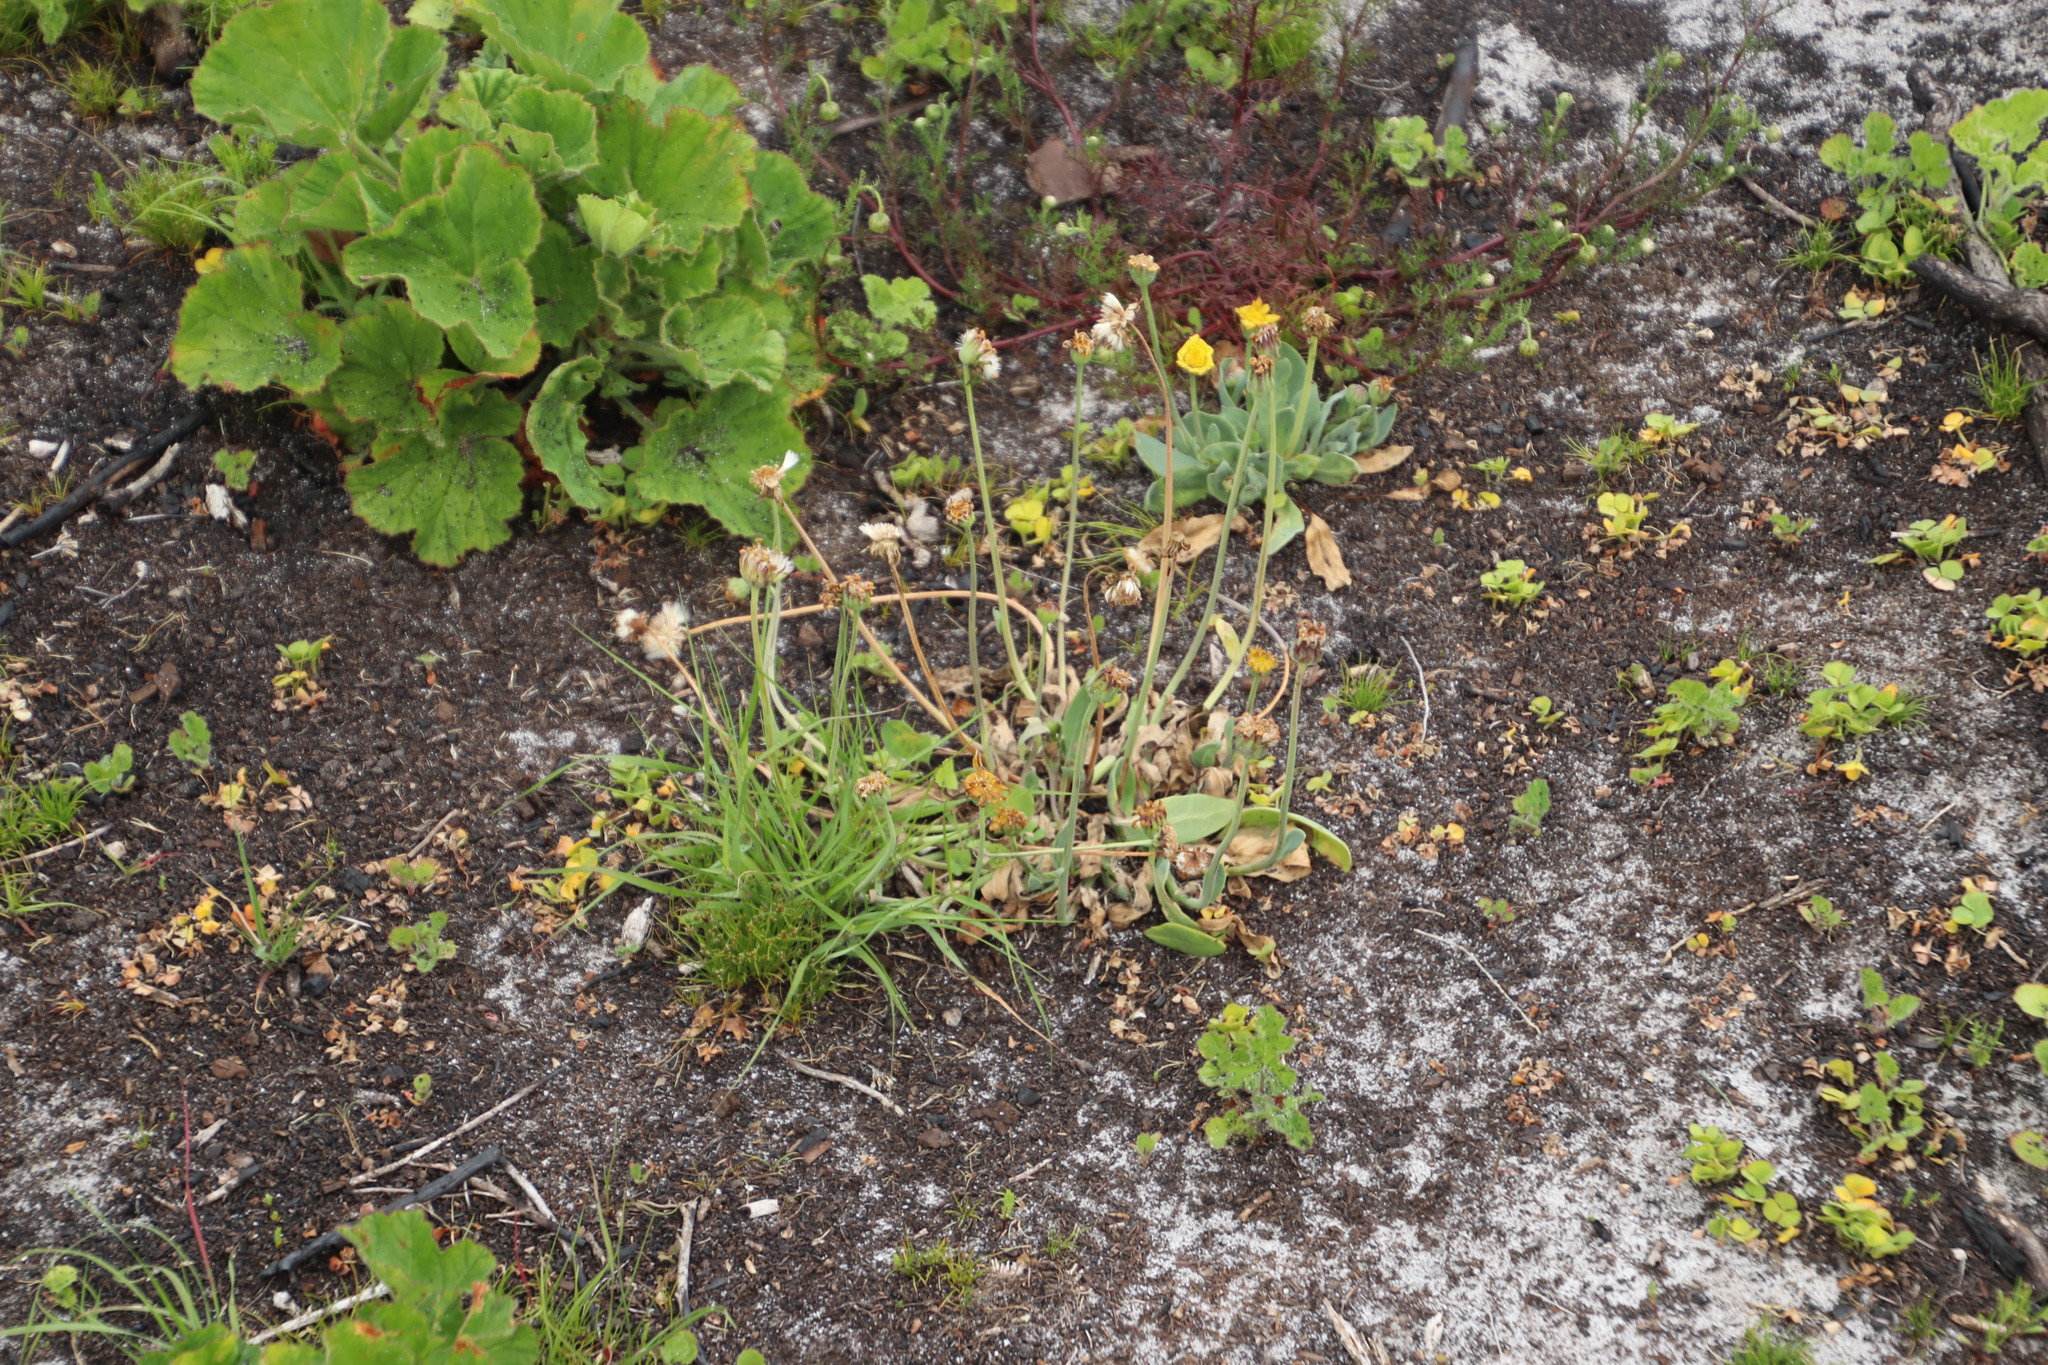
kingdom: Plantae
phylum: Tracheophyta
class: Magnoliopsida
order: Asterales
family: Asteraceae
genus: Othonna
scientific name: Othonna bulbosa
